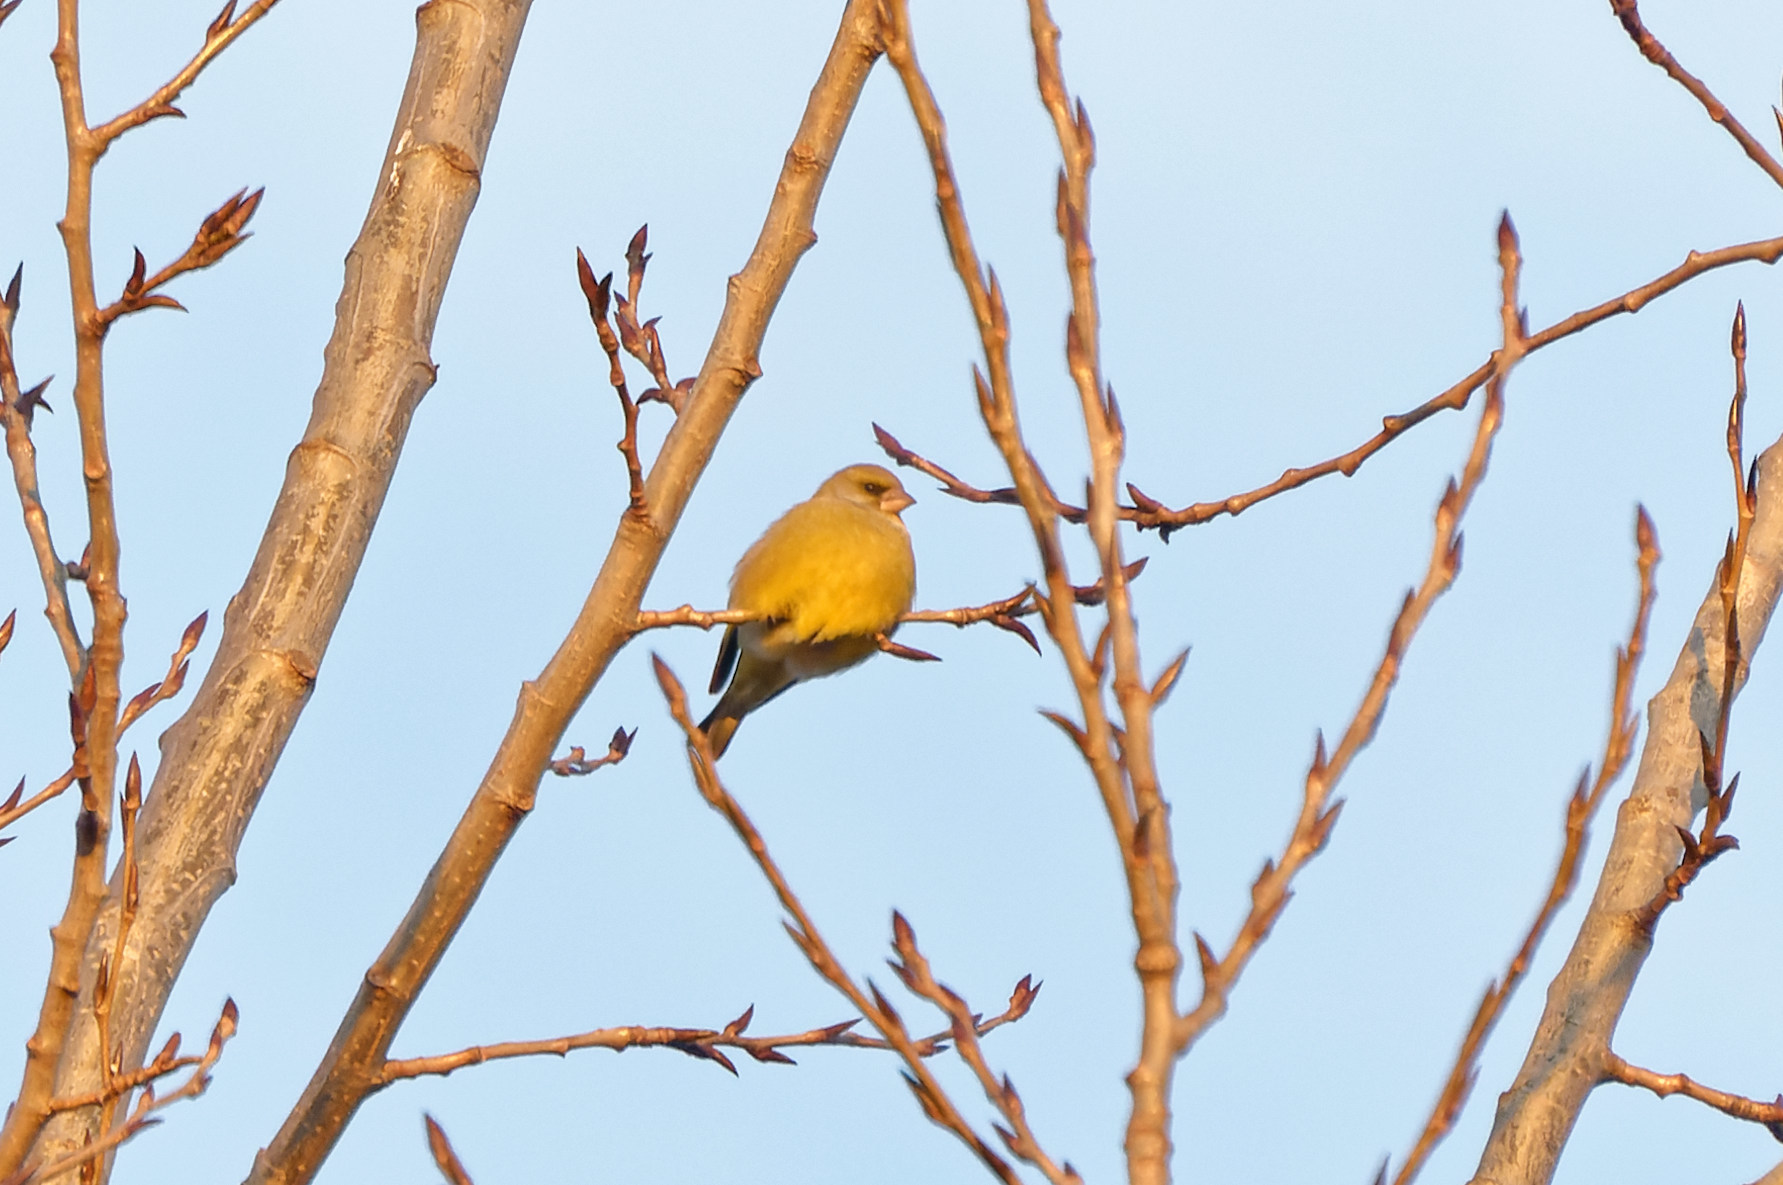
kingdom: Plantae
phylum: Tracheophyta
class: Liliopsida
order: Poales
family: Poaceae
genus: Chloris
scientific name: Chloris chloris
